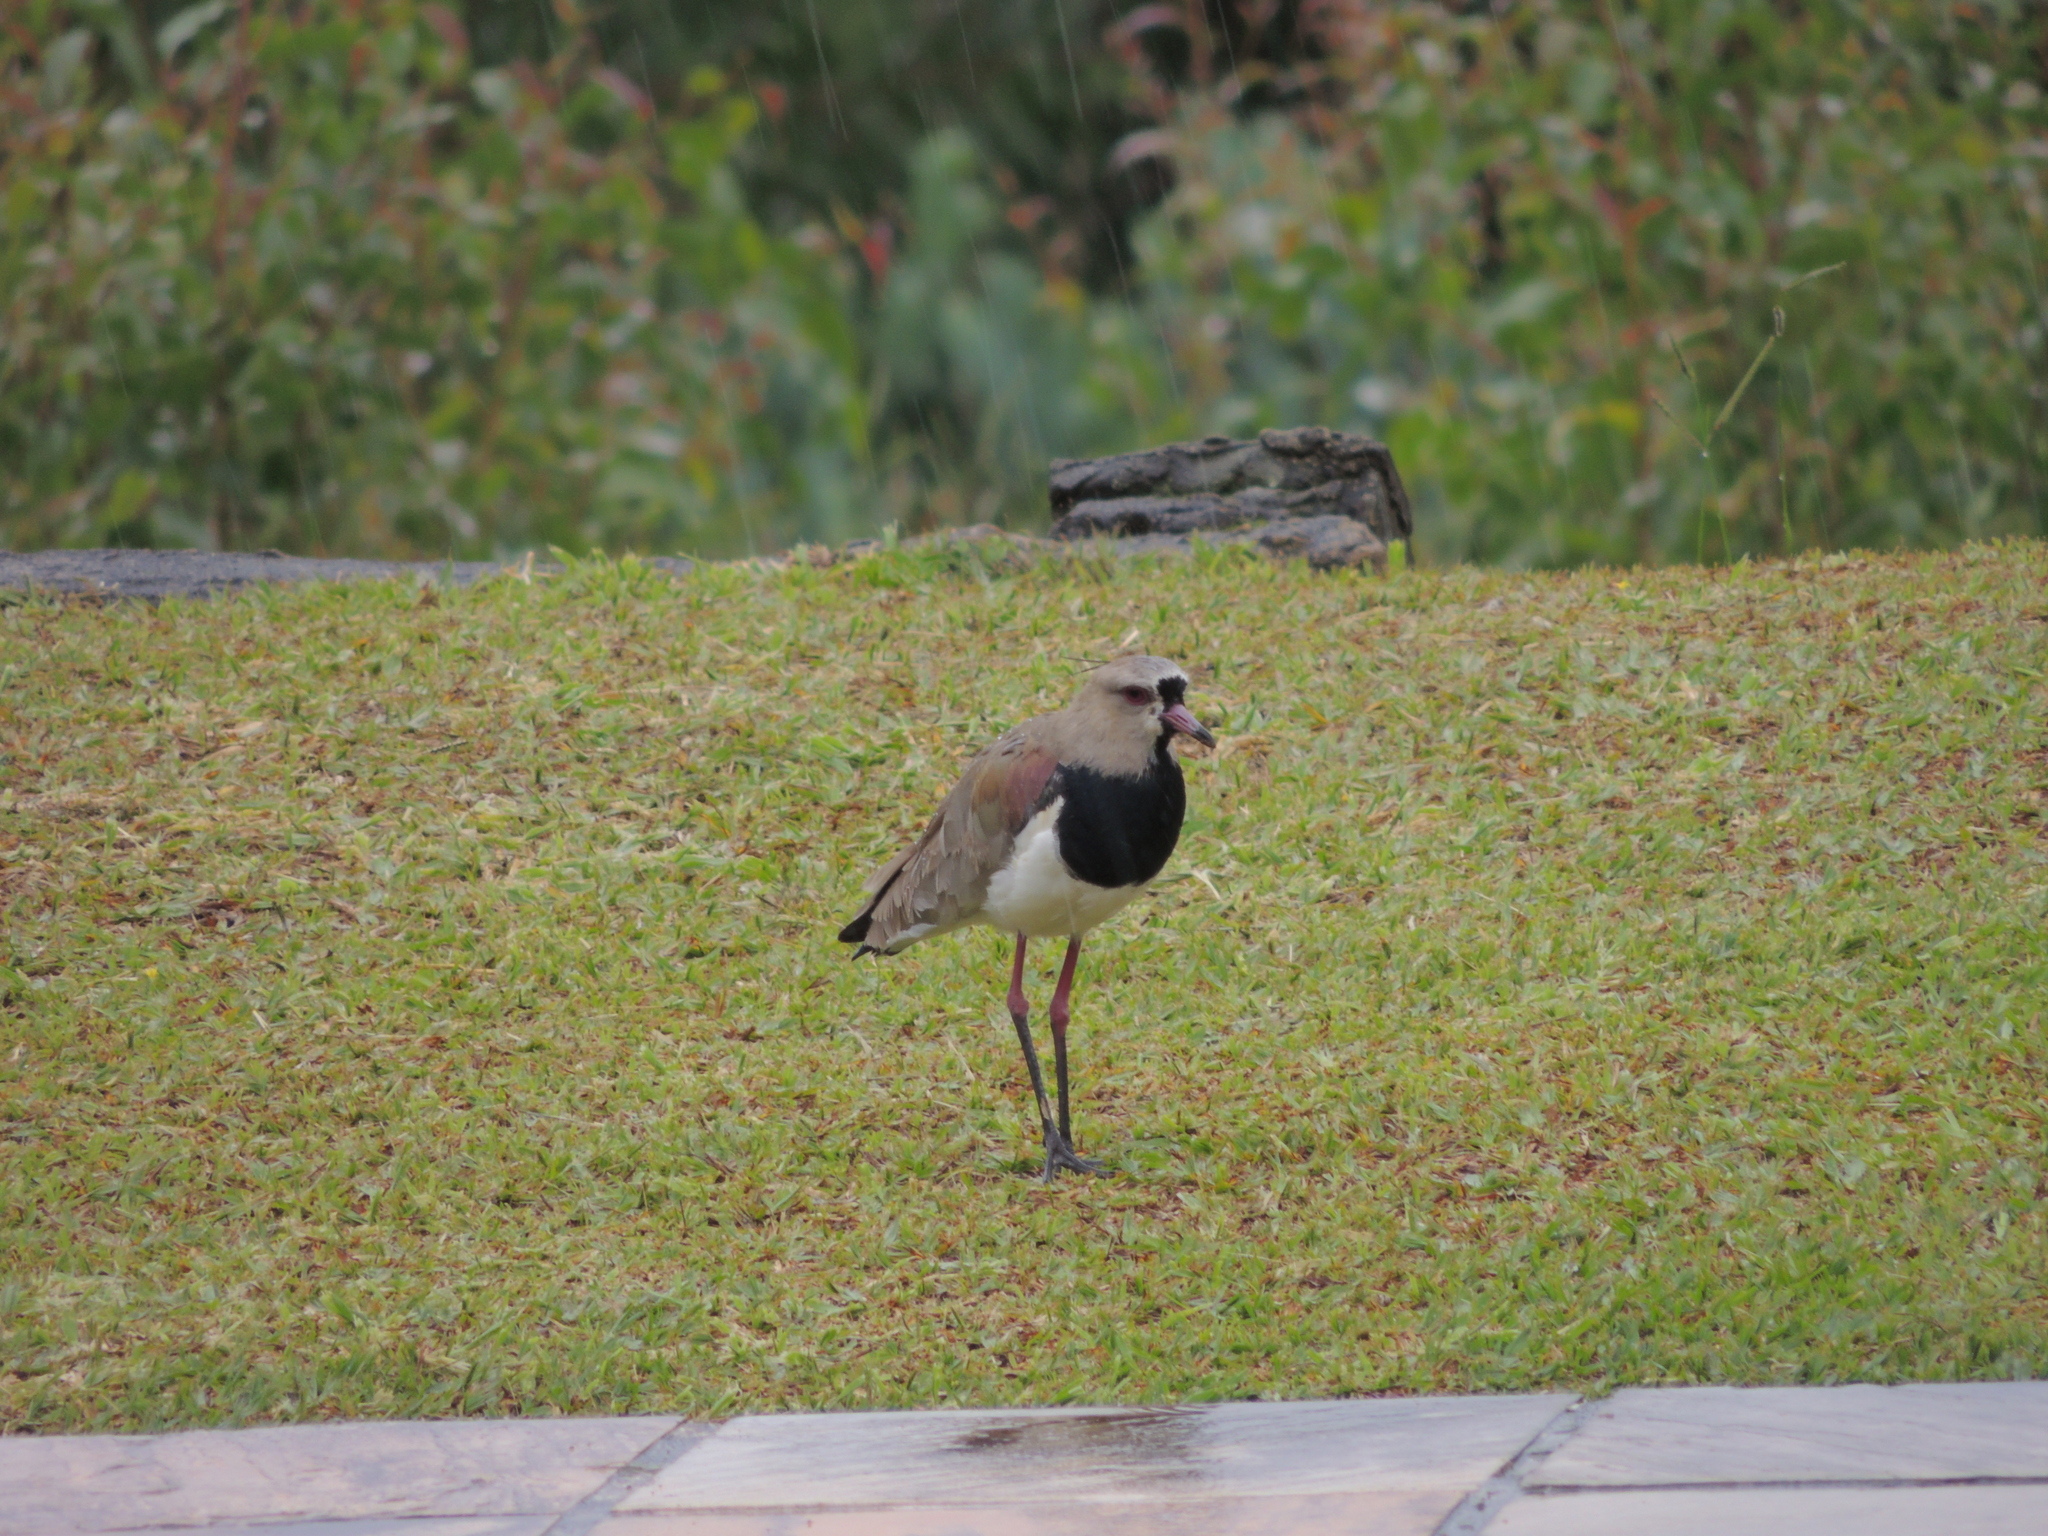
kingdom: Animalia
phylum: Chordata
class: Aves
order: Charadriiformes
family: Charadriidae
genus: Vanellus
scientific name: Vanellus chilensis
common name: Southern lapwing
